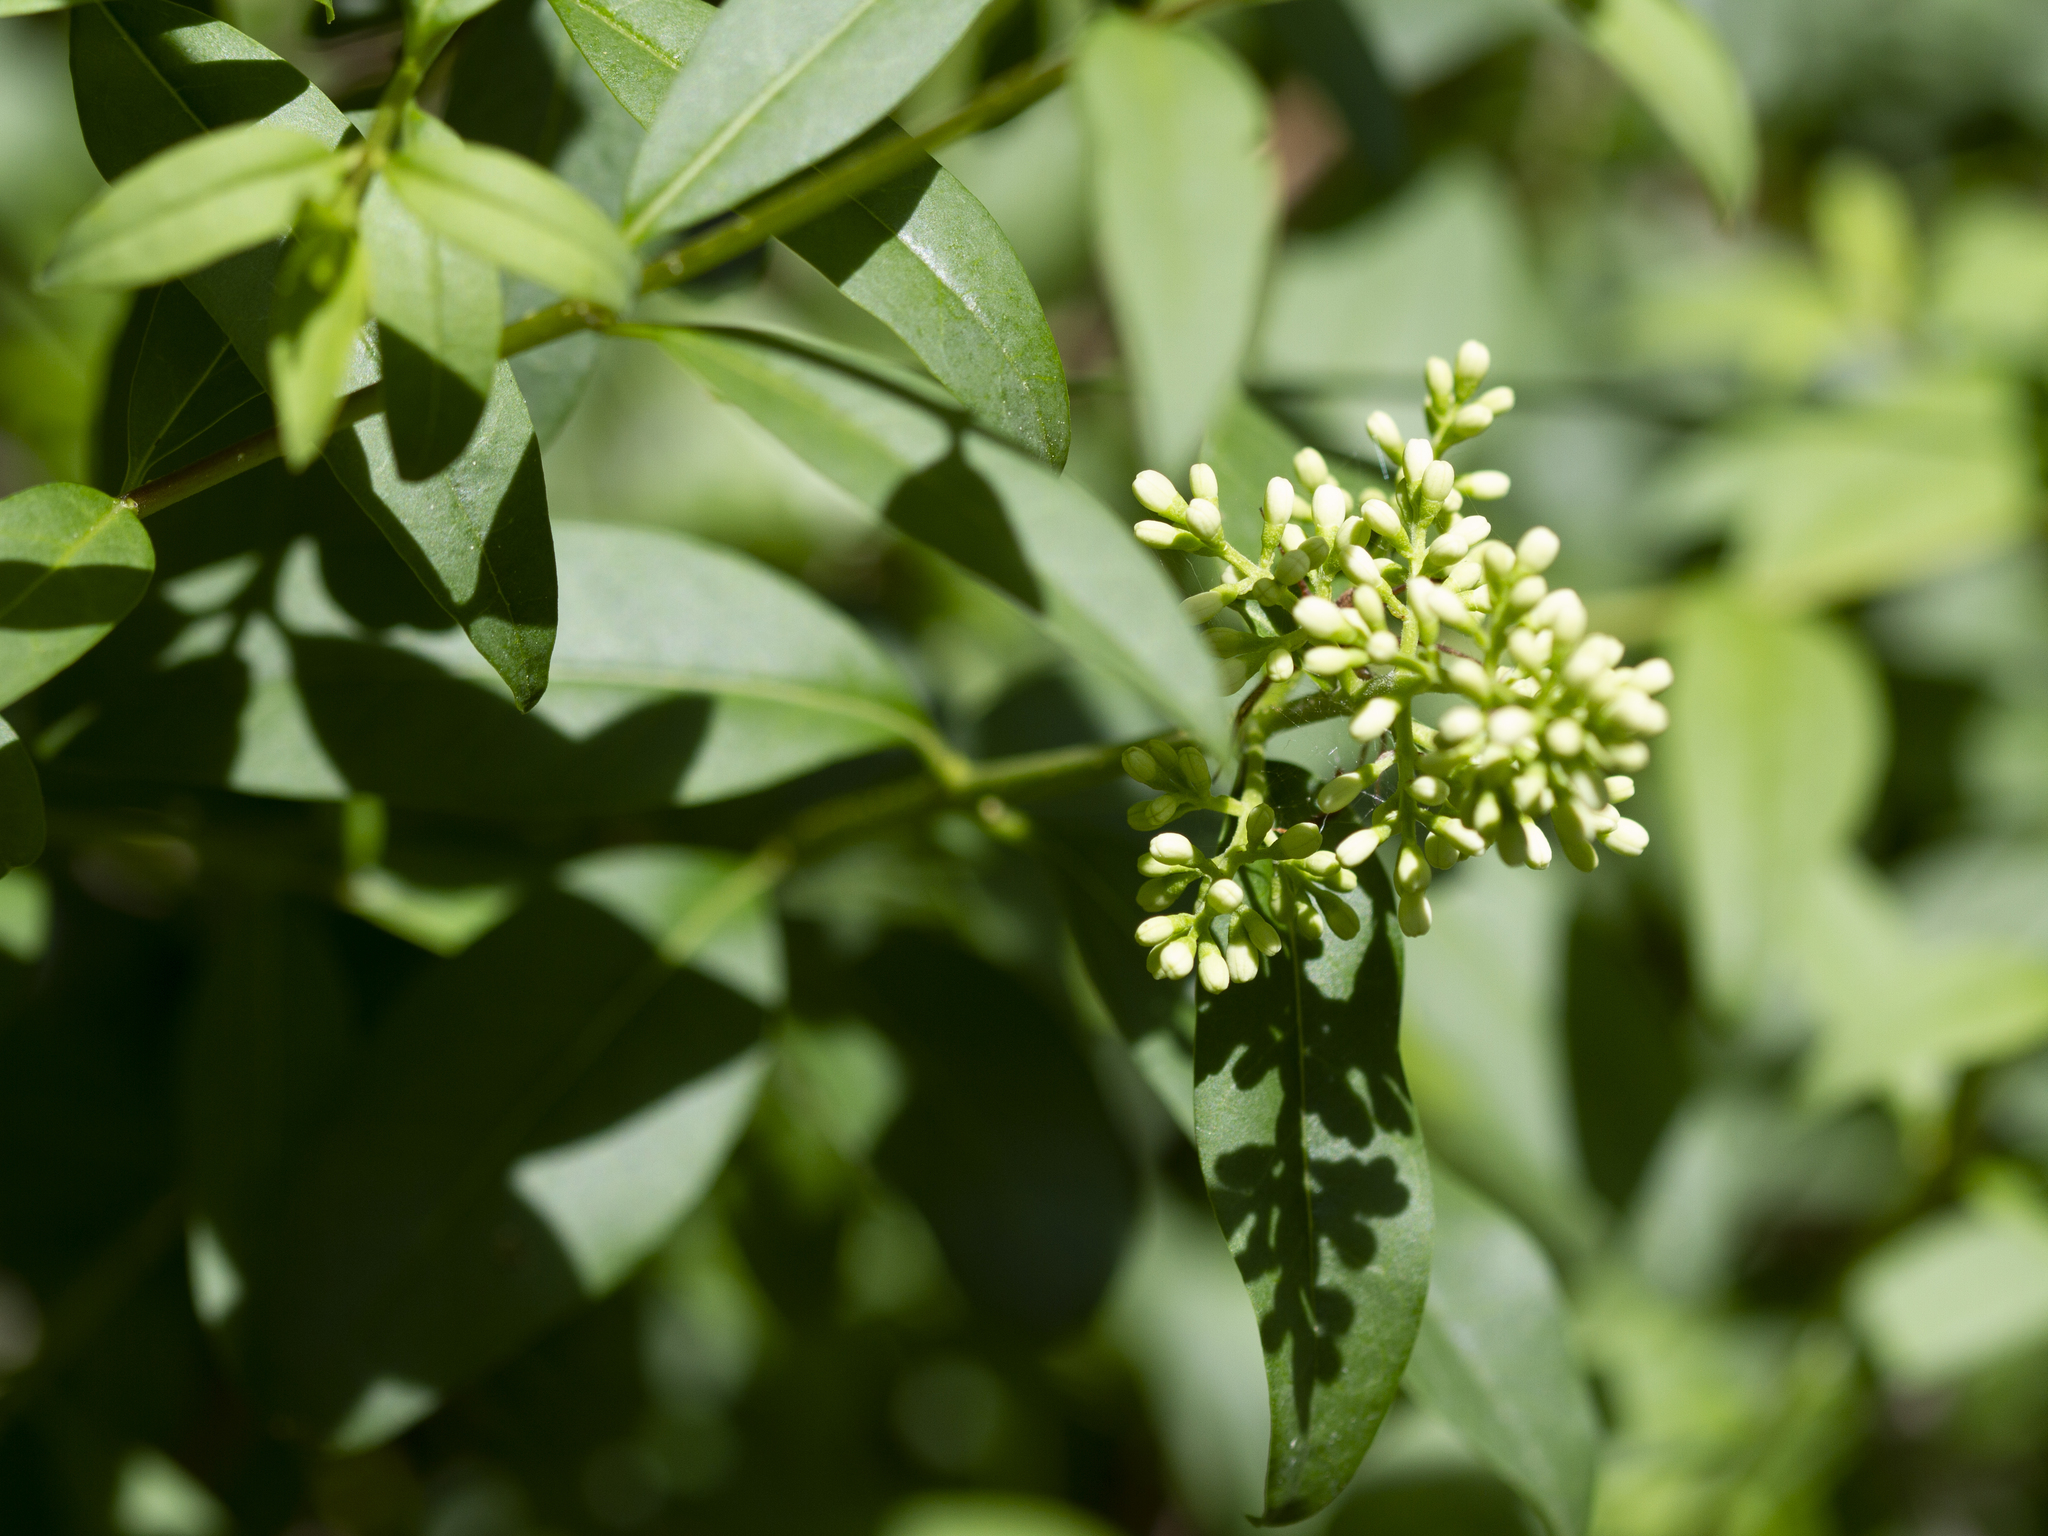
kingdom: Plantae
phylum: Tracheophyta
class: Magnoliopsida
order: Lamiales
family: Oleaceae
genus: Ligustrum
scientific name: Ligustrum vulgare
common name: Wild privet
